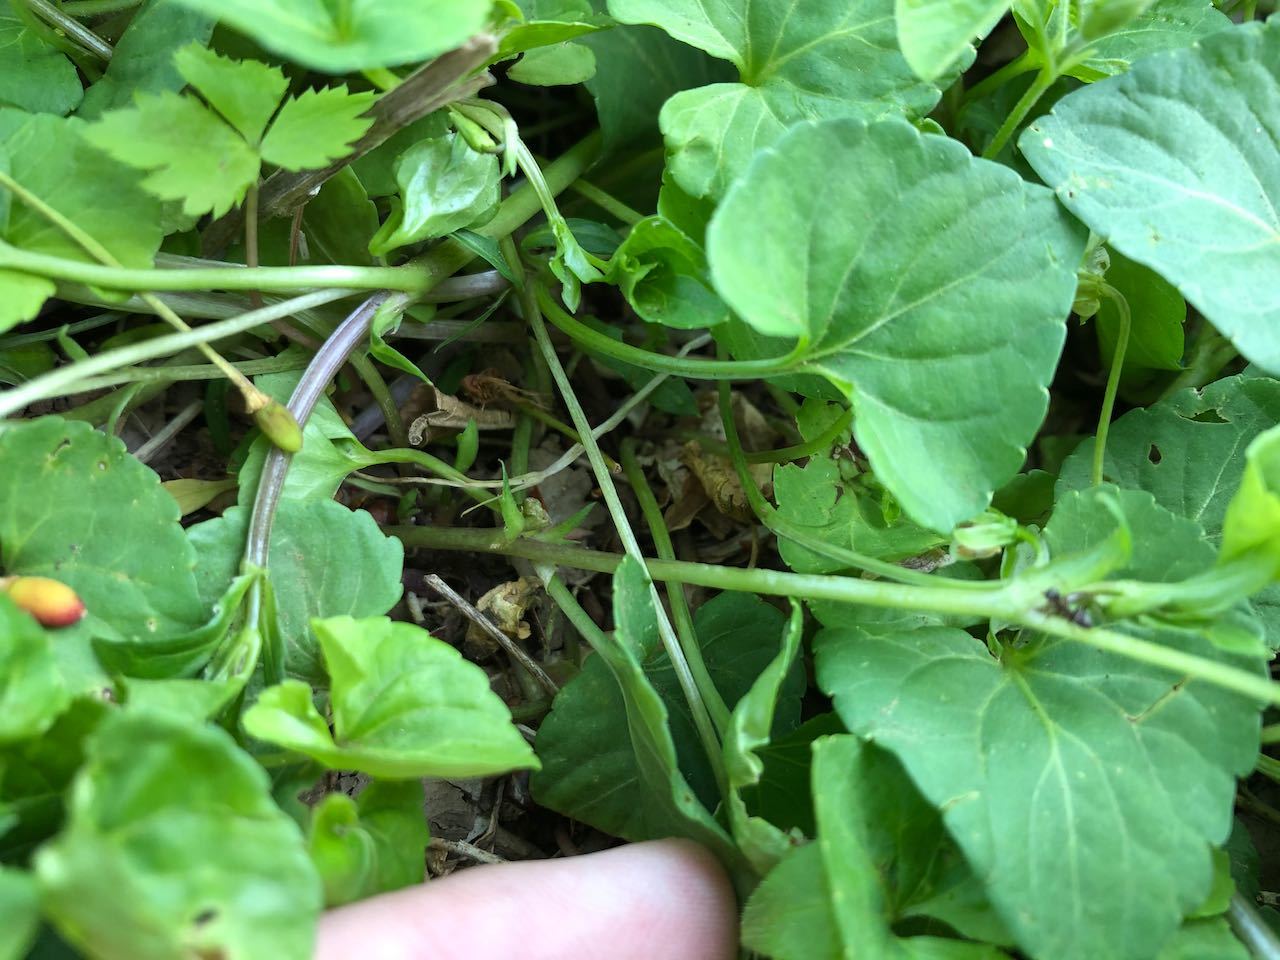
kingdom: Plantae
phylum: Tracheophyta
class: Magnoliopsida
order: Malpighiales
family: Violaceae
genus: Viola
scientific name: Viola
